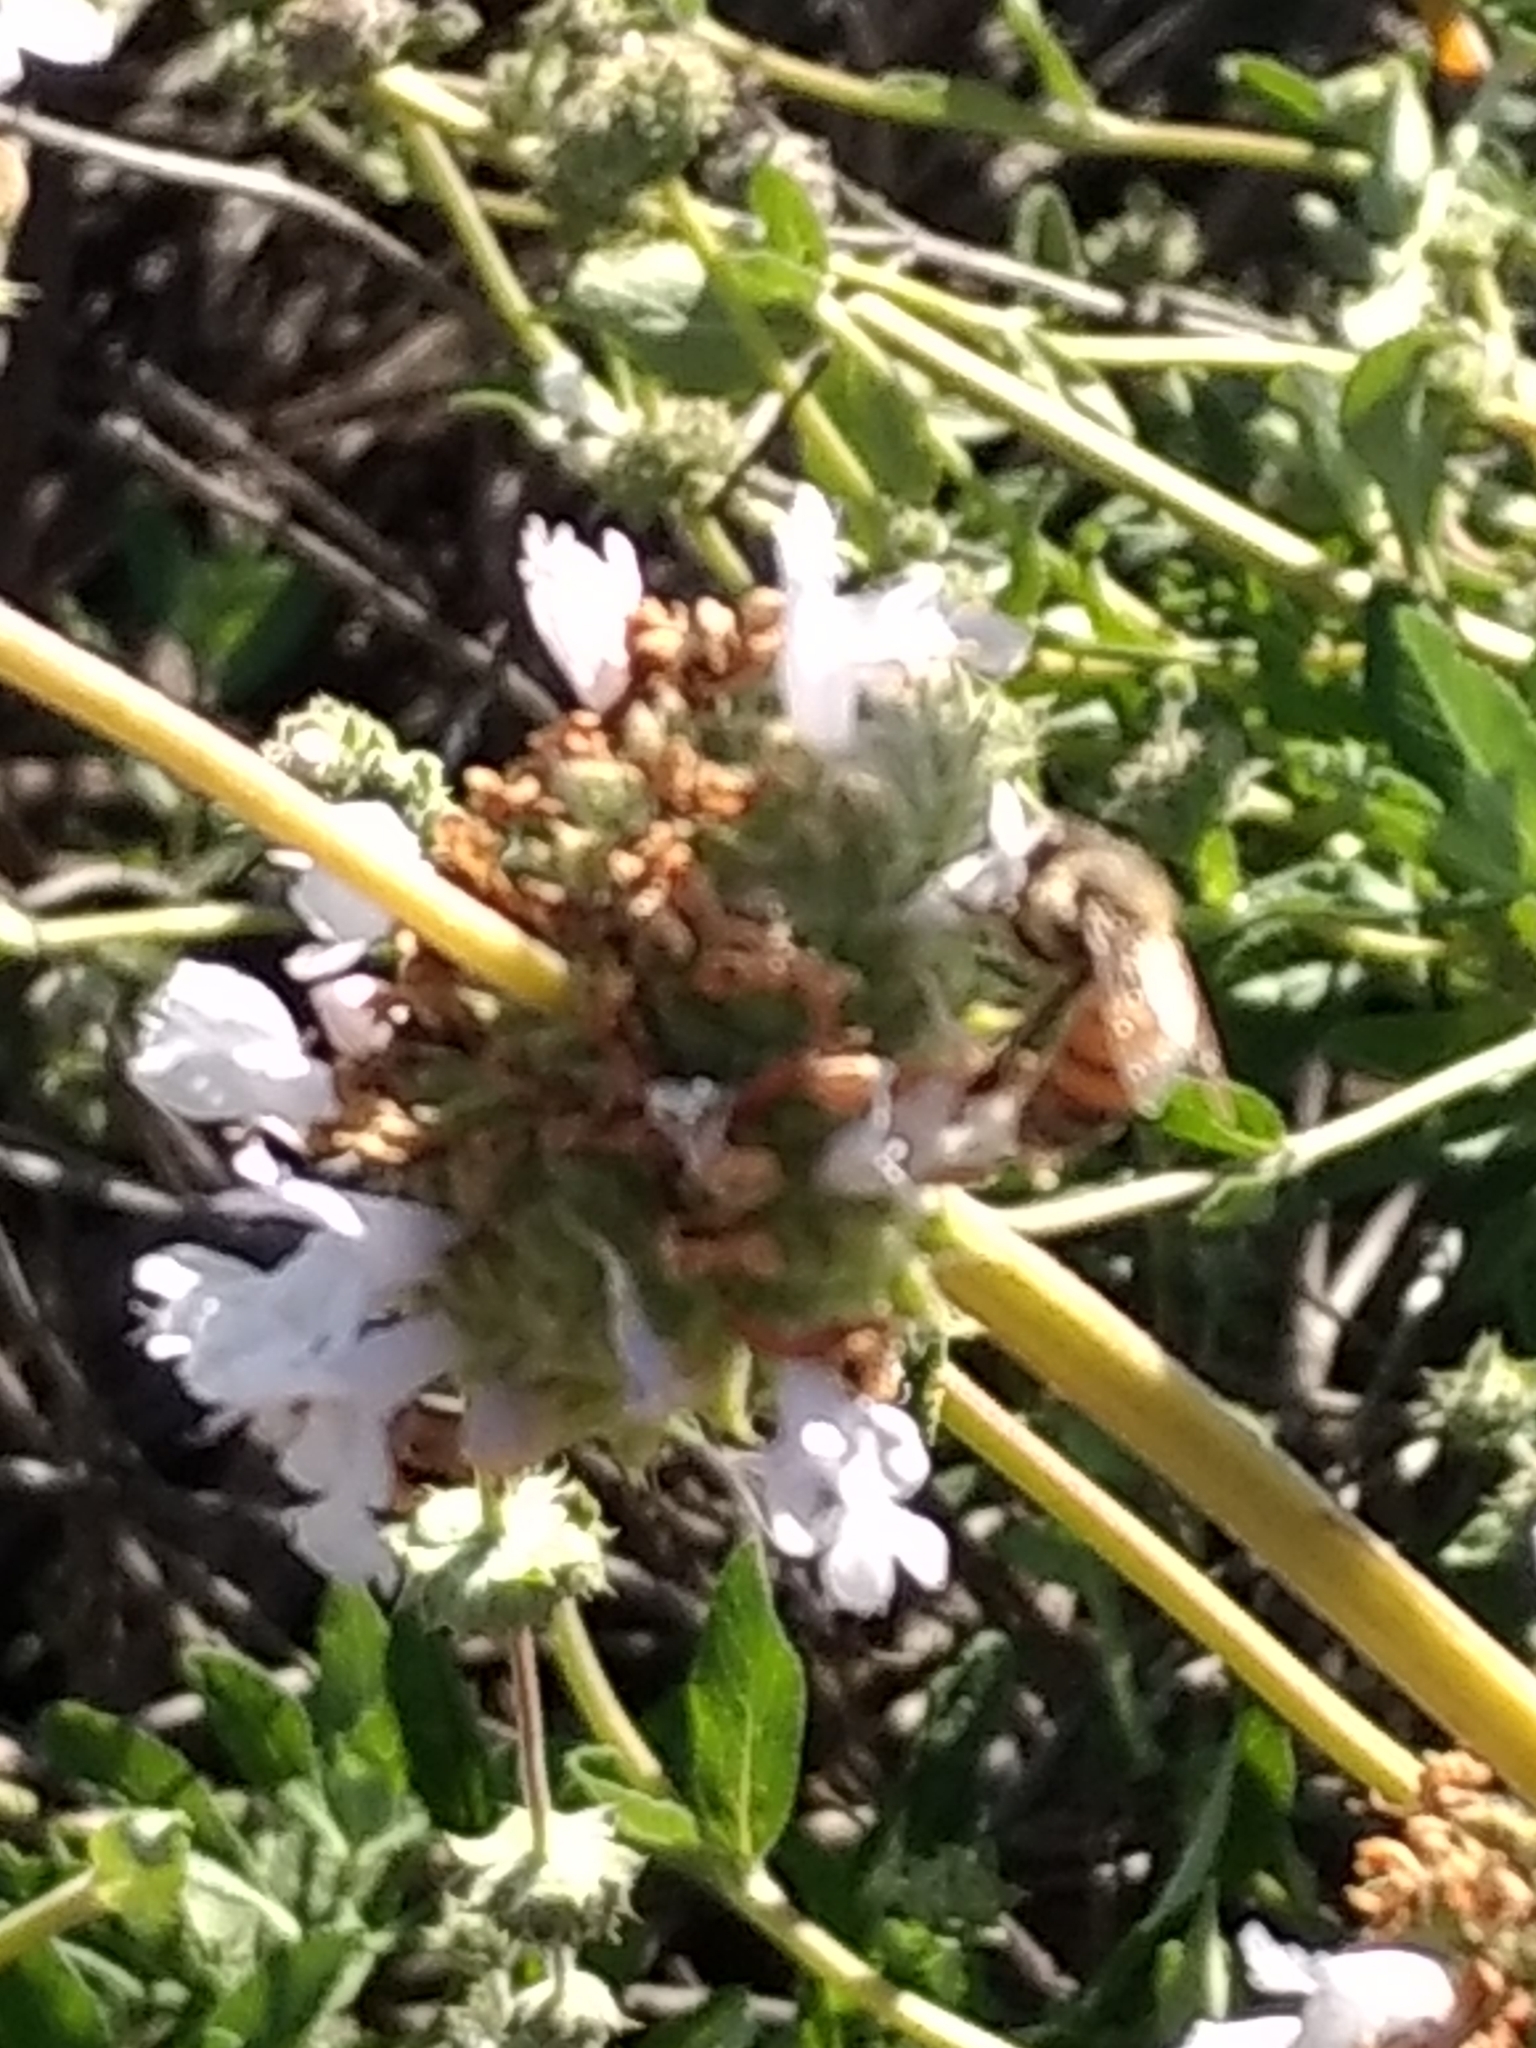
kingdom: Animalia
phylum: Arthropoda
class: Insecta
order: Hymenoptera
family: Apidae
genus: Apis
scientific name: Apis mellifera
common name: Honey bee
